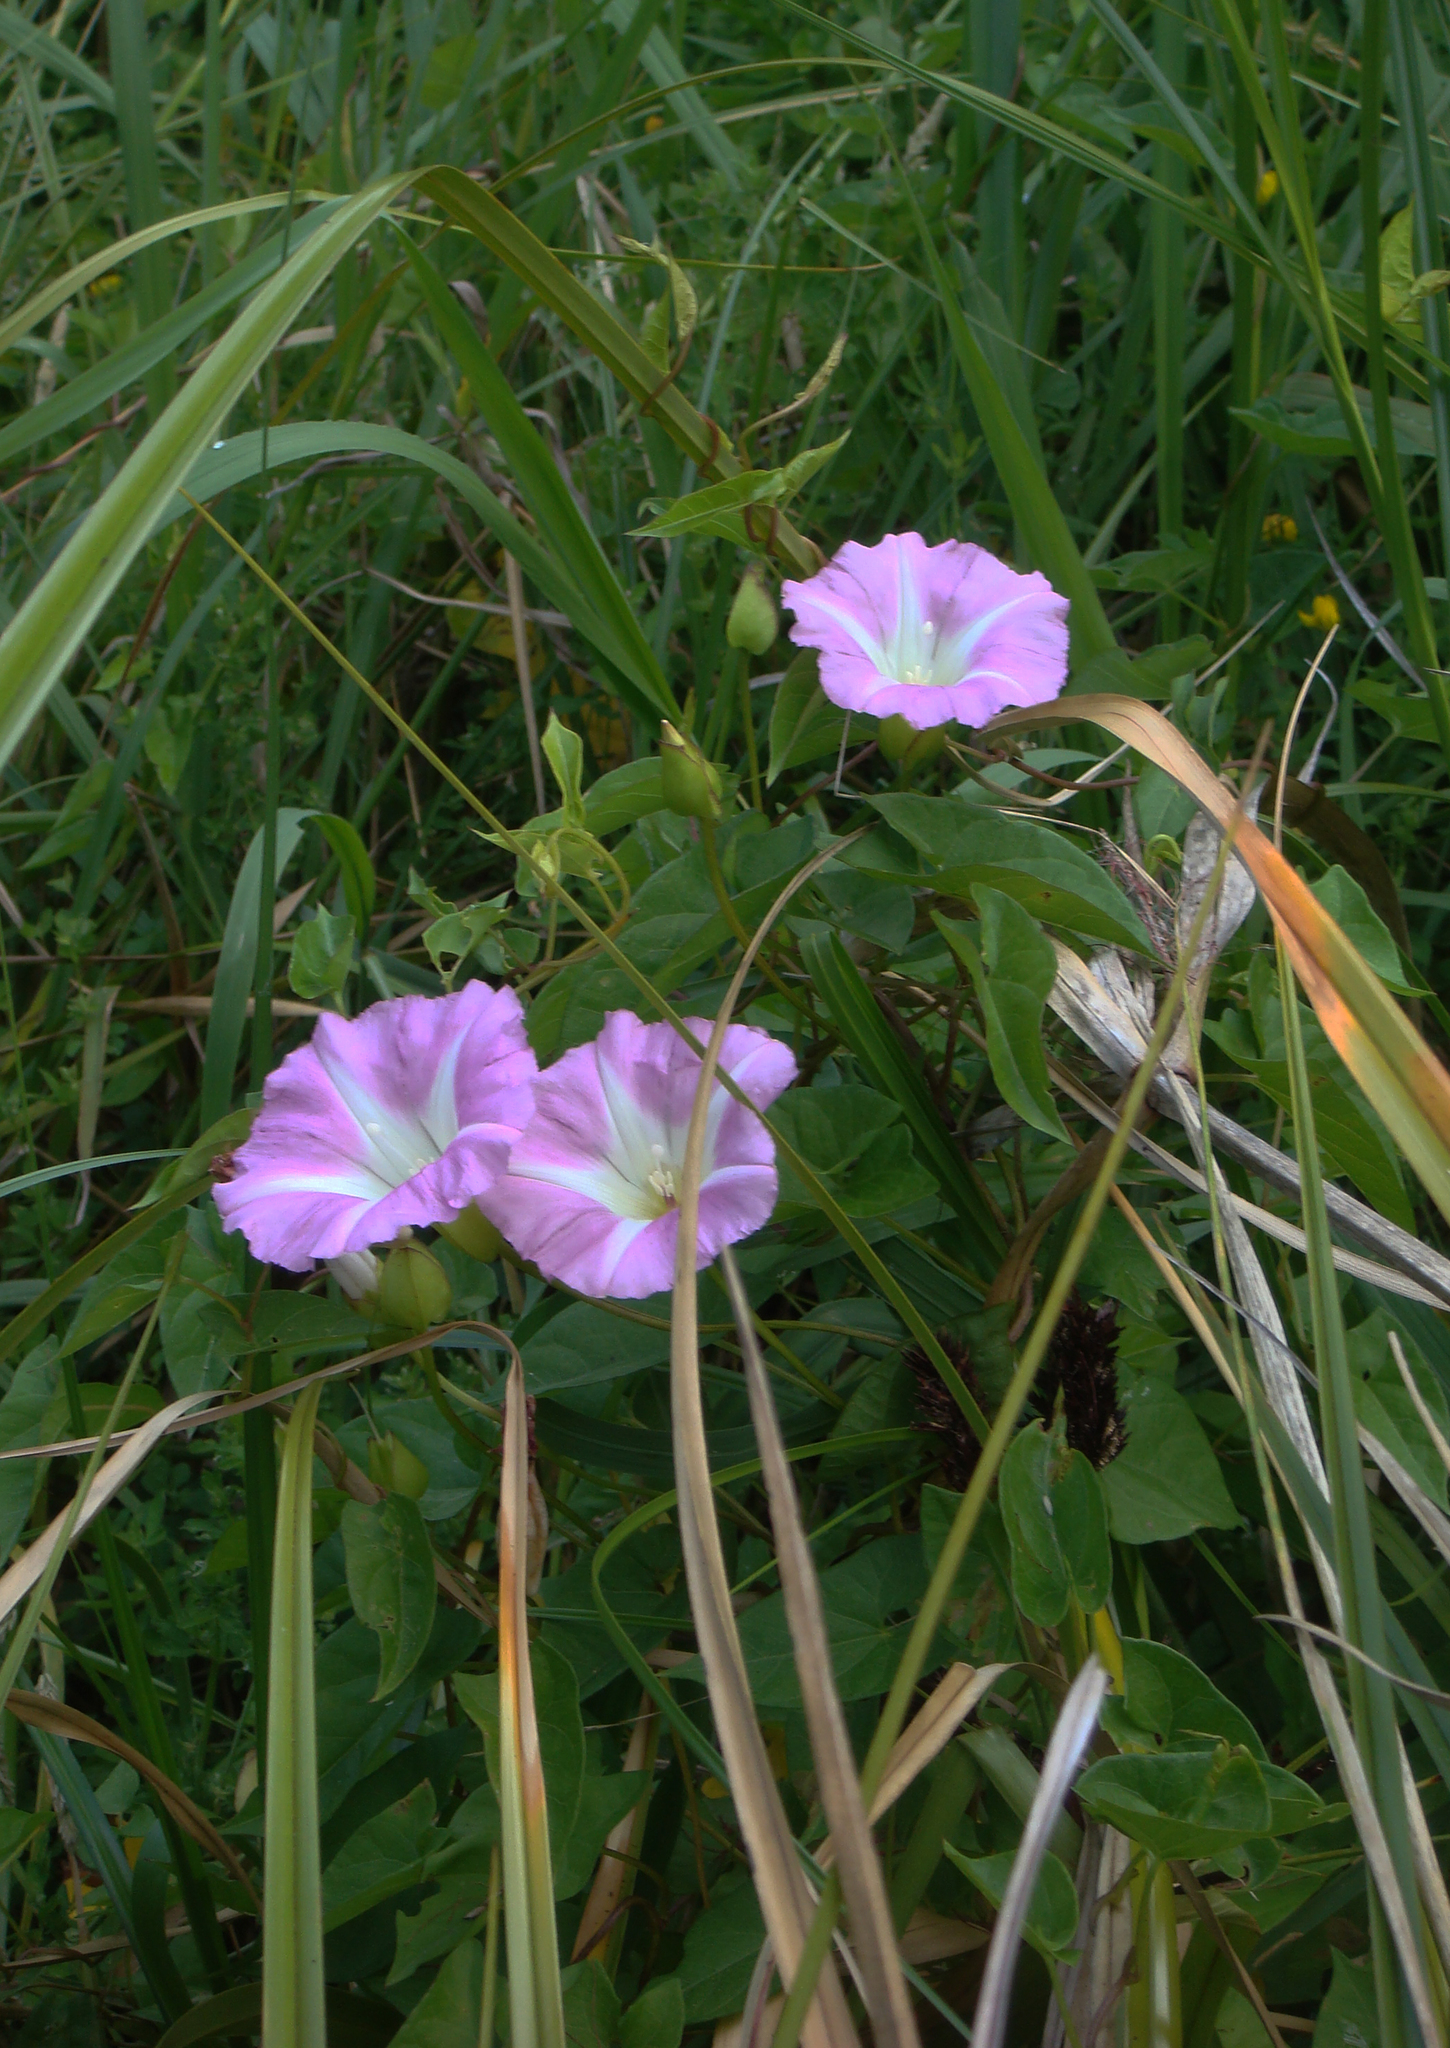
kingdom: Plantae
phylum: Tracheophyta
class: Magnoliopsida
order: Solanales
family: Convolvulaceae
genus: Calystegia
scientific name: Calystegia sepium
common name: Hedge bindweed
